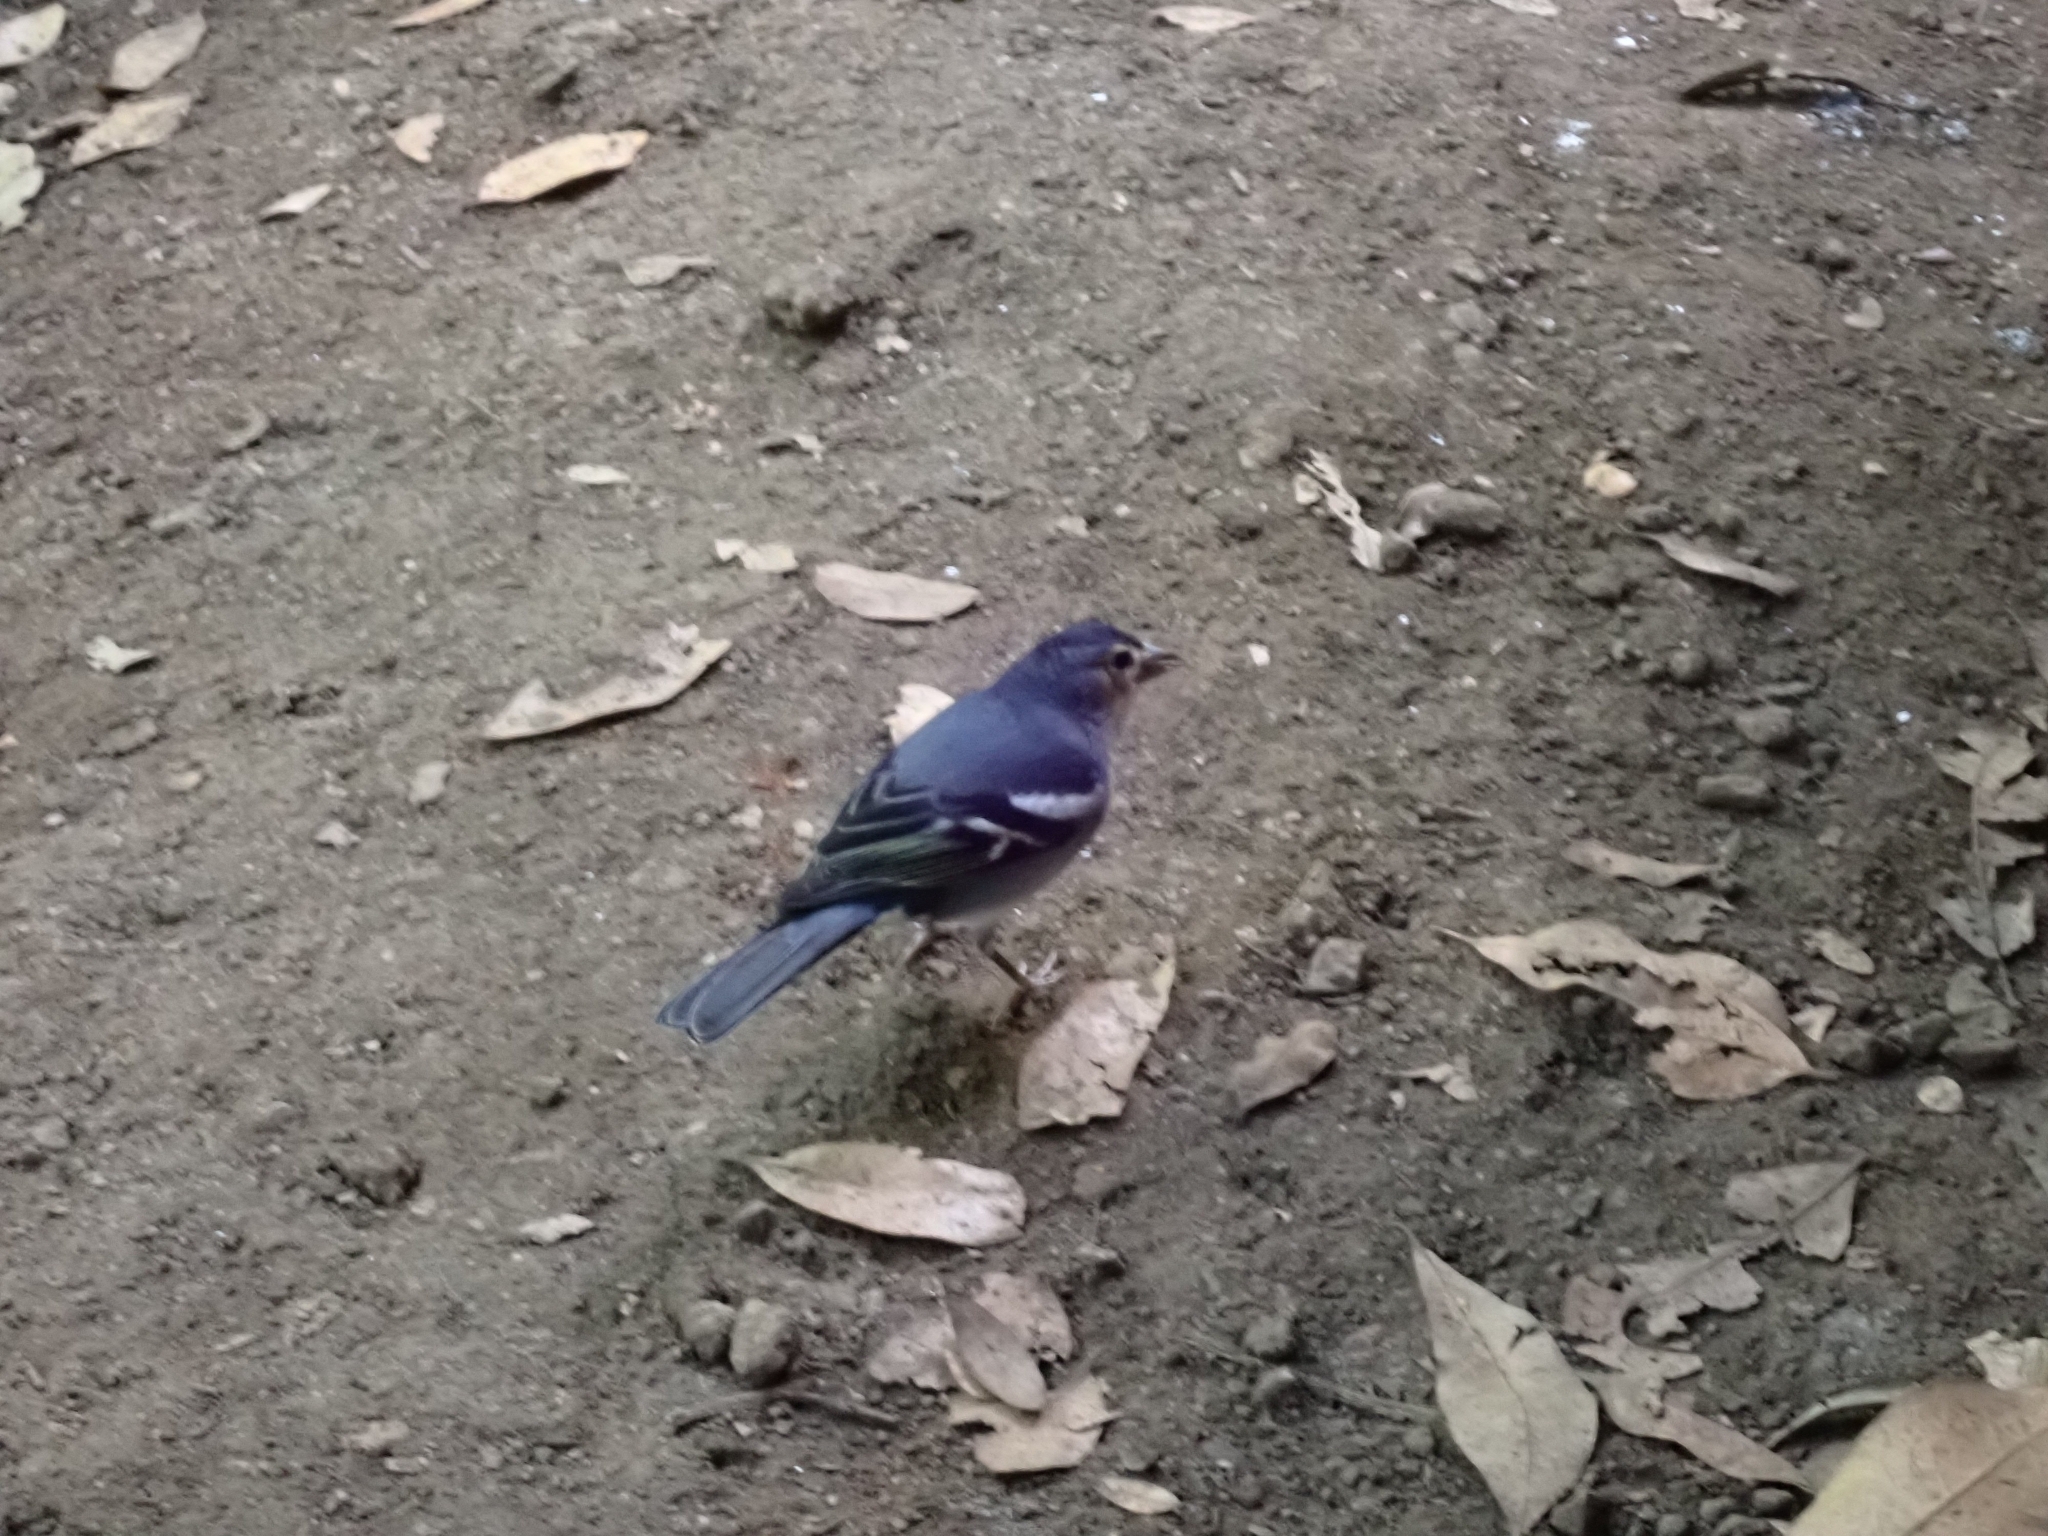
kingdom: Animalia
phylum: Chordata
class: Aves
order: Passeriformes
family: Fringillidae
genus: Fringilla
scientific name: Fringilla canariensis
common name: Canary islands chaffinch
